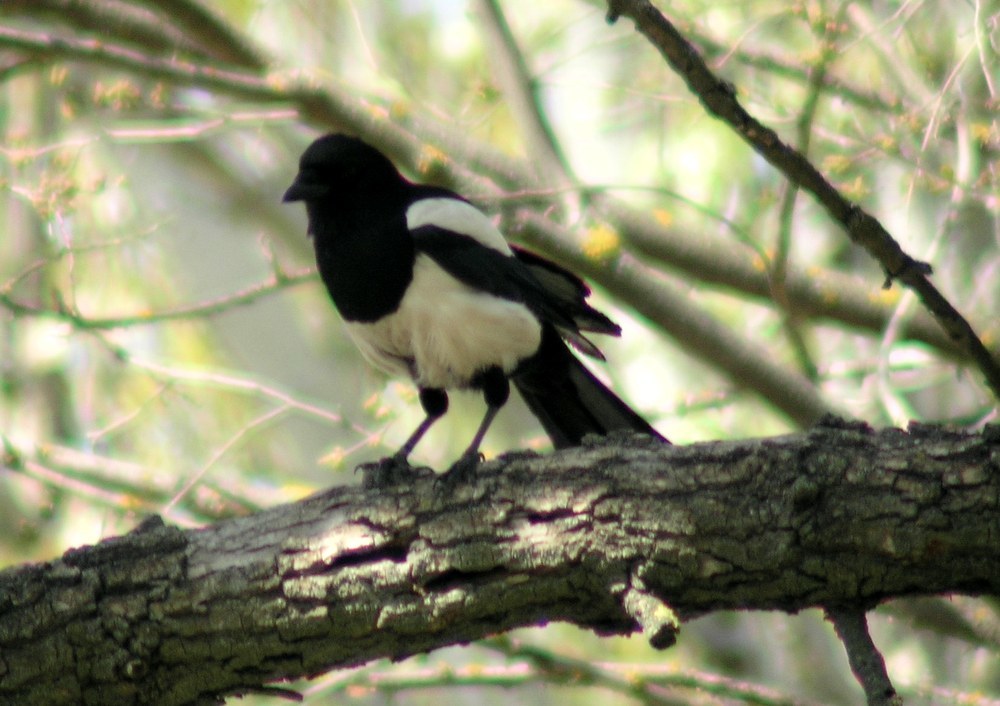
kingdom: Animalia
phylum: Chordata
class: Aves
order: Passeriformes
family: Corvidae
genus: Pica
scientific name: Pica pica
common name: Eurasian magpie
